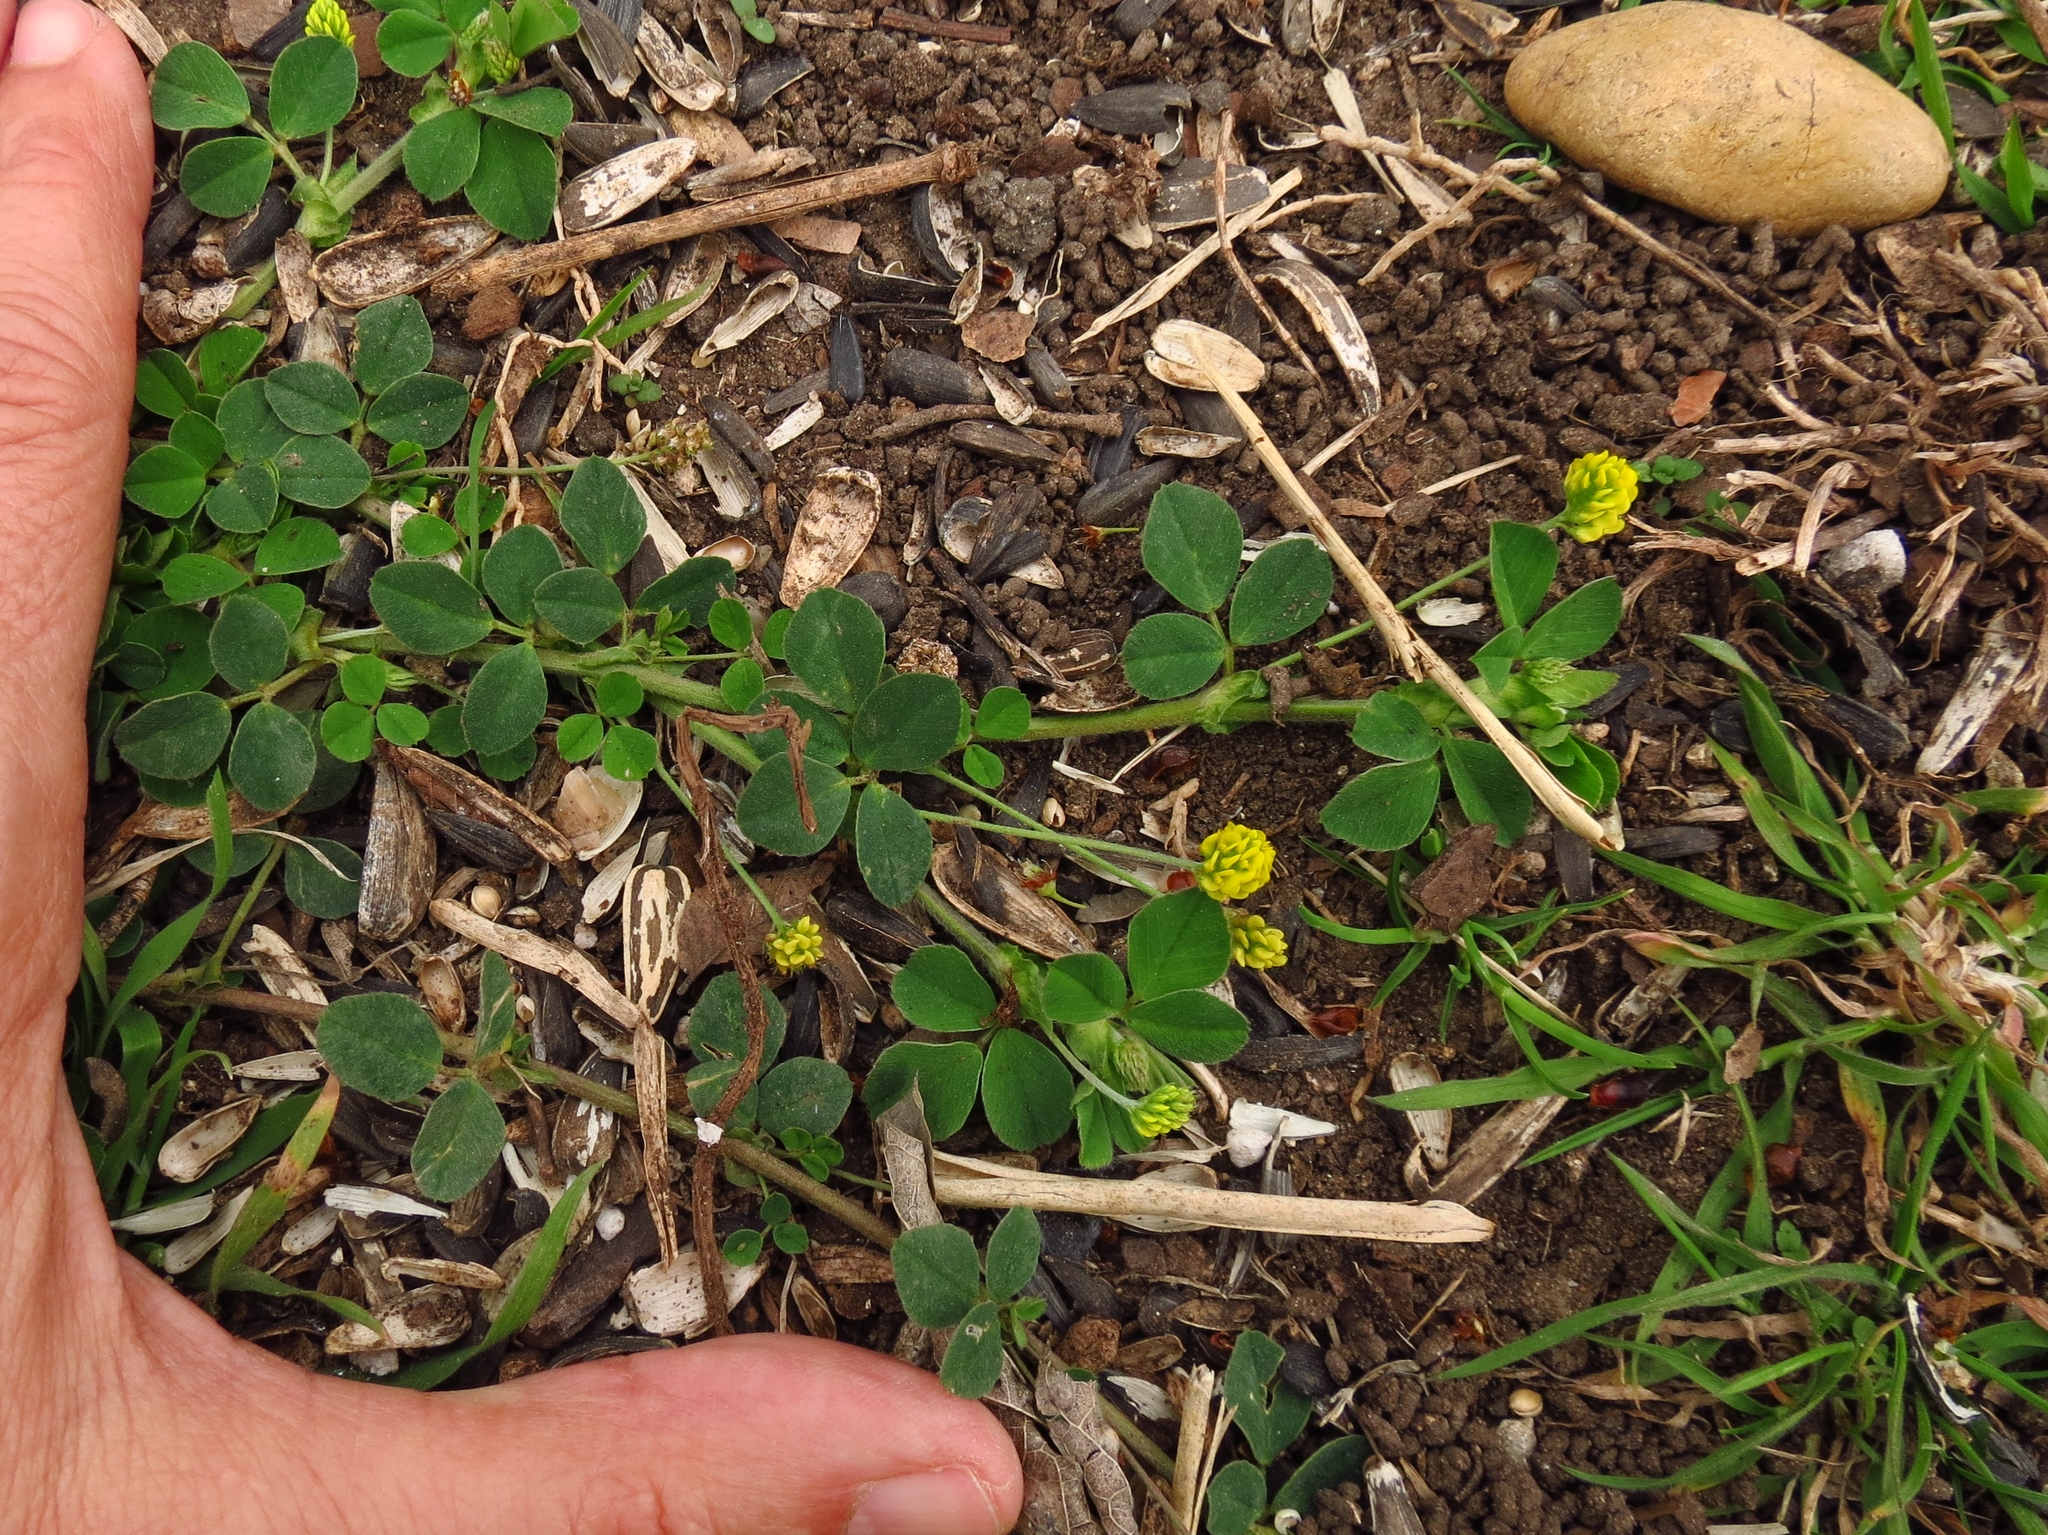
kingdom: Plantae
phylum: Tracheophyta
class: Magnoliopsida
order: Fabales
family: Fabaceae
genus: Medicago
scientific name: Medicago lupulina
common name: Black medick
